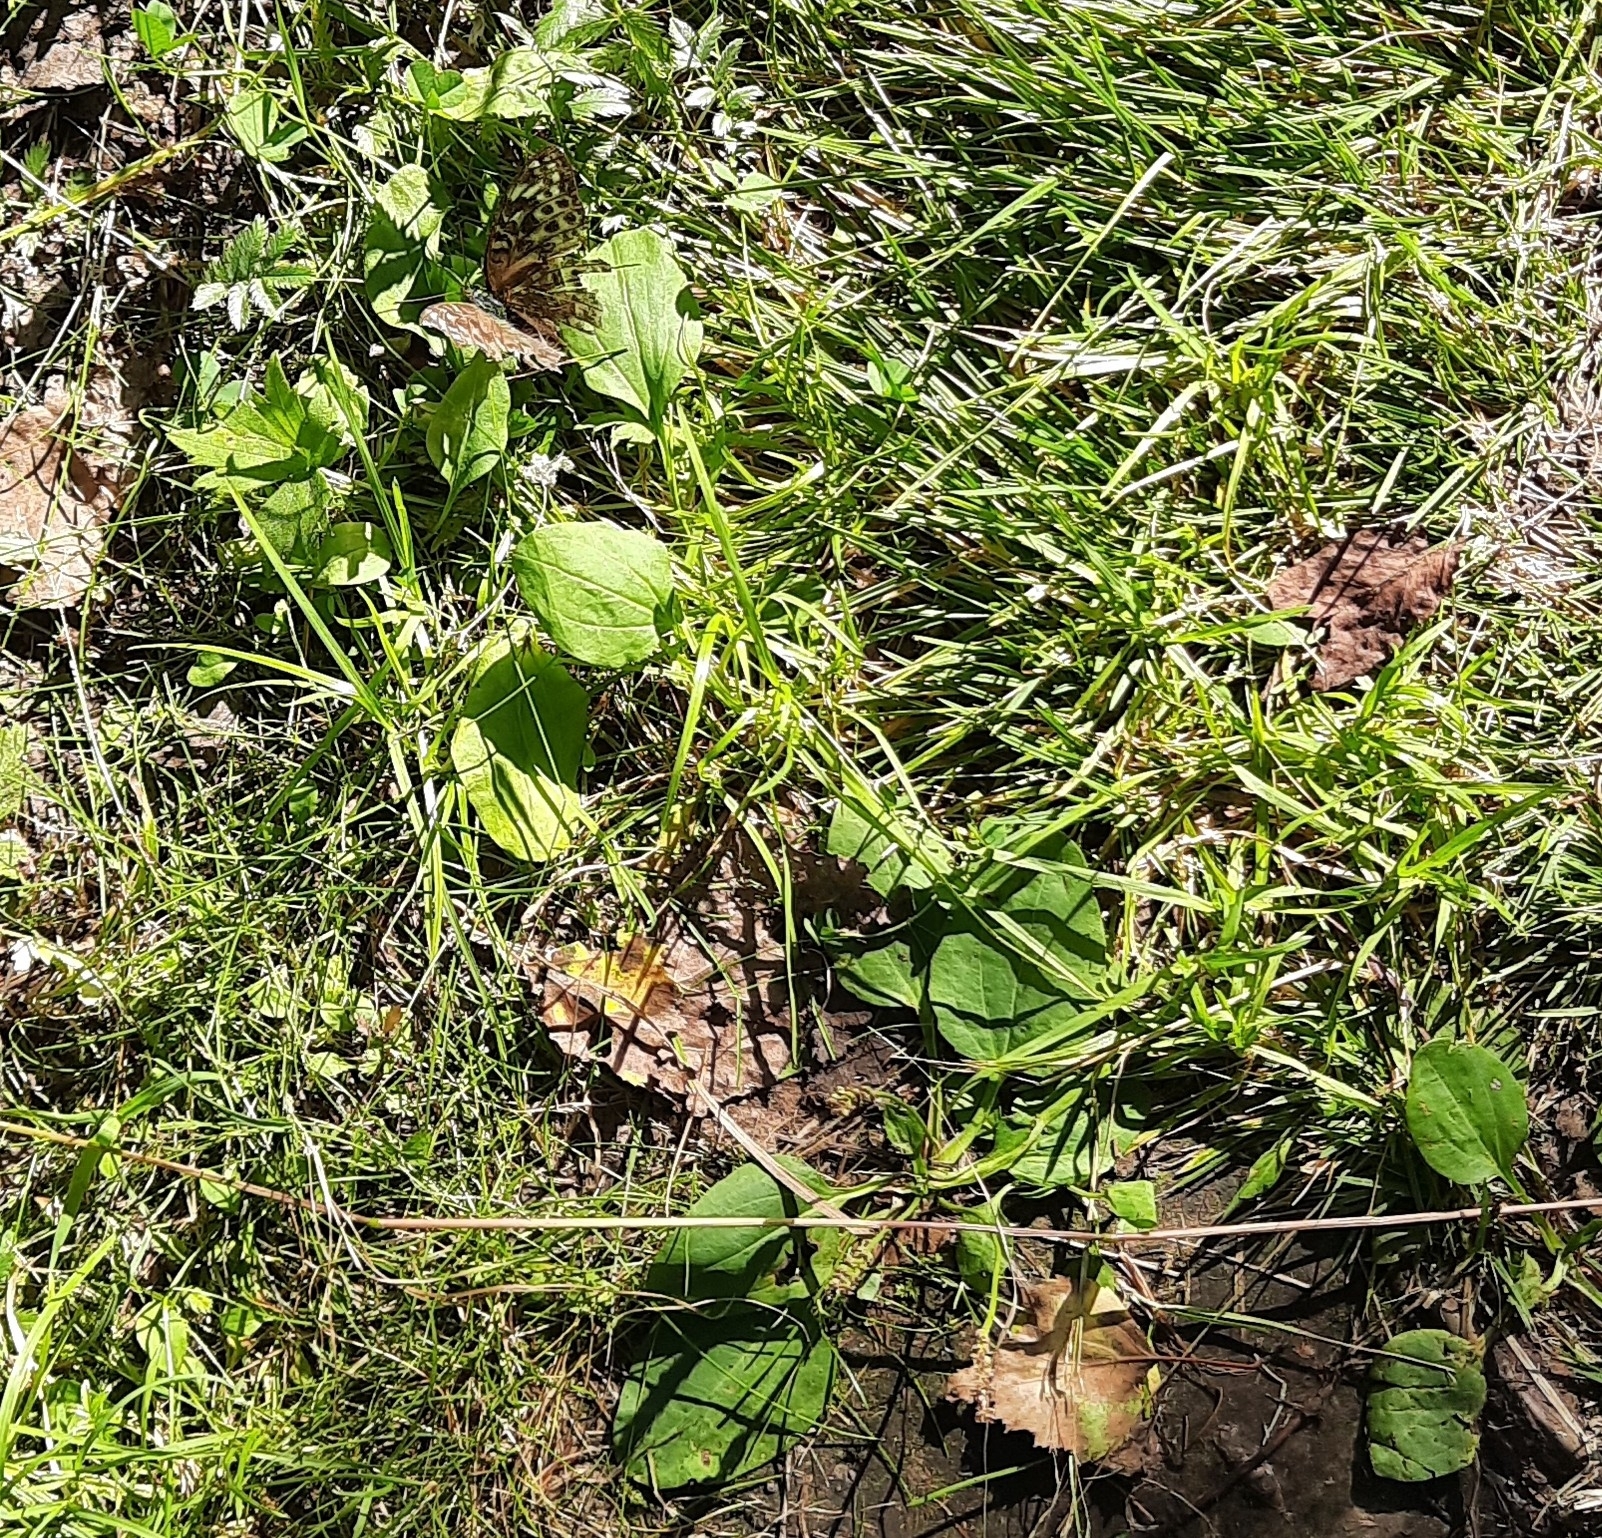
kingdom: Plantae
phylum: Tracheophyta
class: Magnoliopsida
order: Lamiales
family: Plantaginaceae
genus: Plantago
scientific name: Plantago major
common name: Common plantain
